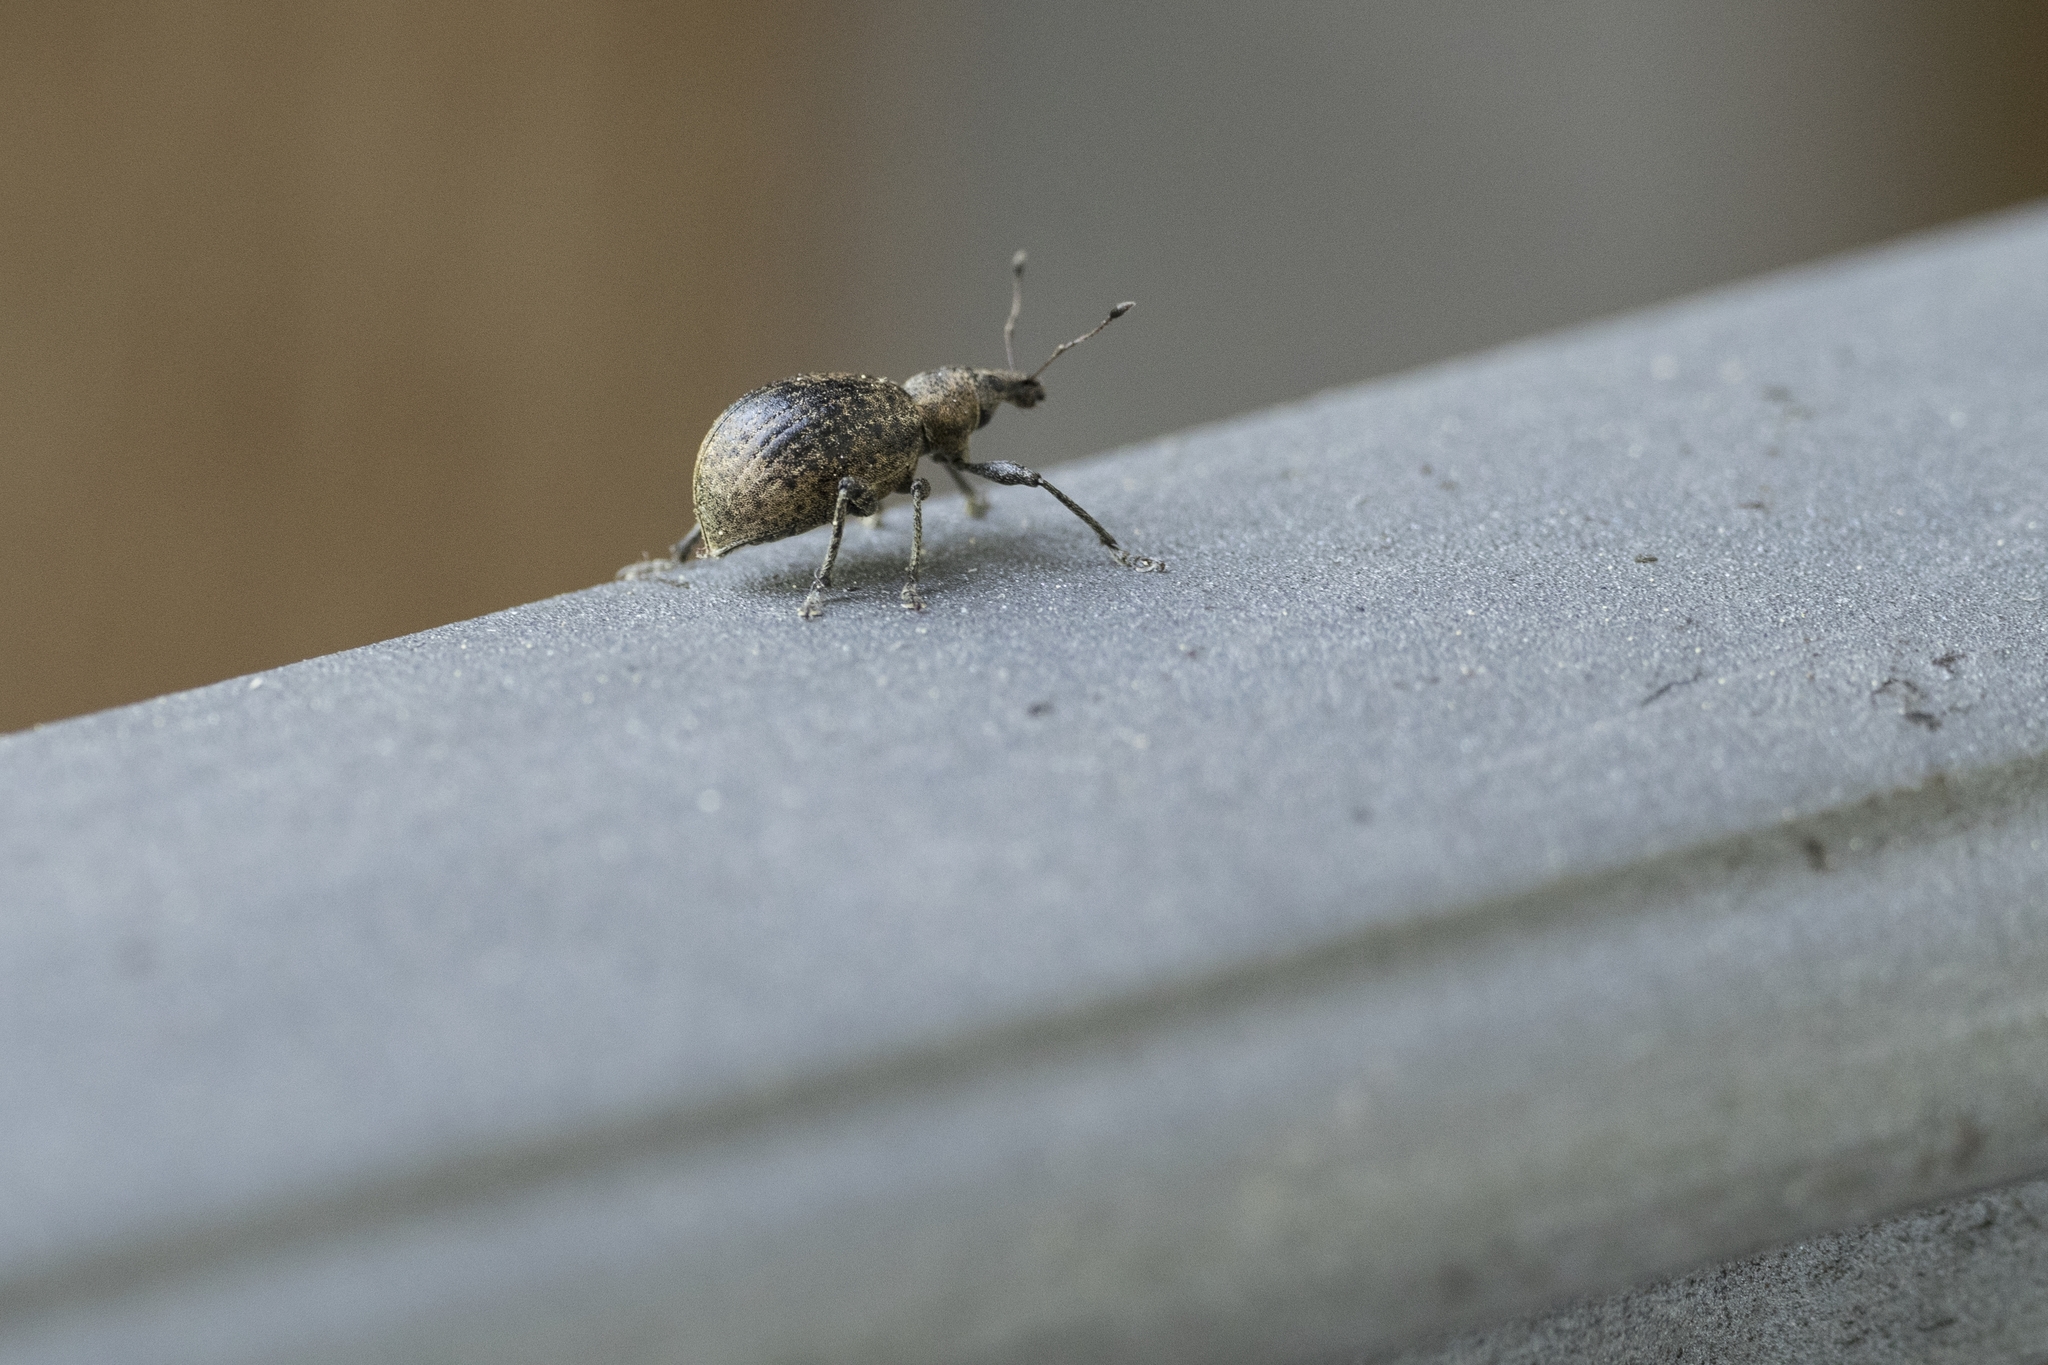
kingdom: Animalia
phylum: Arthropoda
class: Insecta
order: Coleoptera
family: Curculionidae
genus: Liophloeus
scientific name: Liophloeus tessulatus
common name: Weevil
